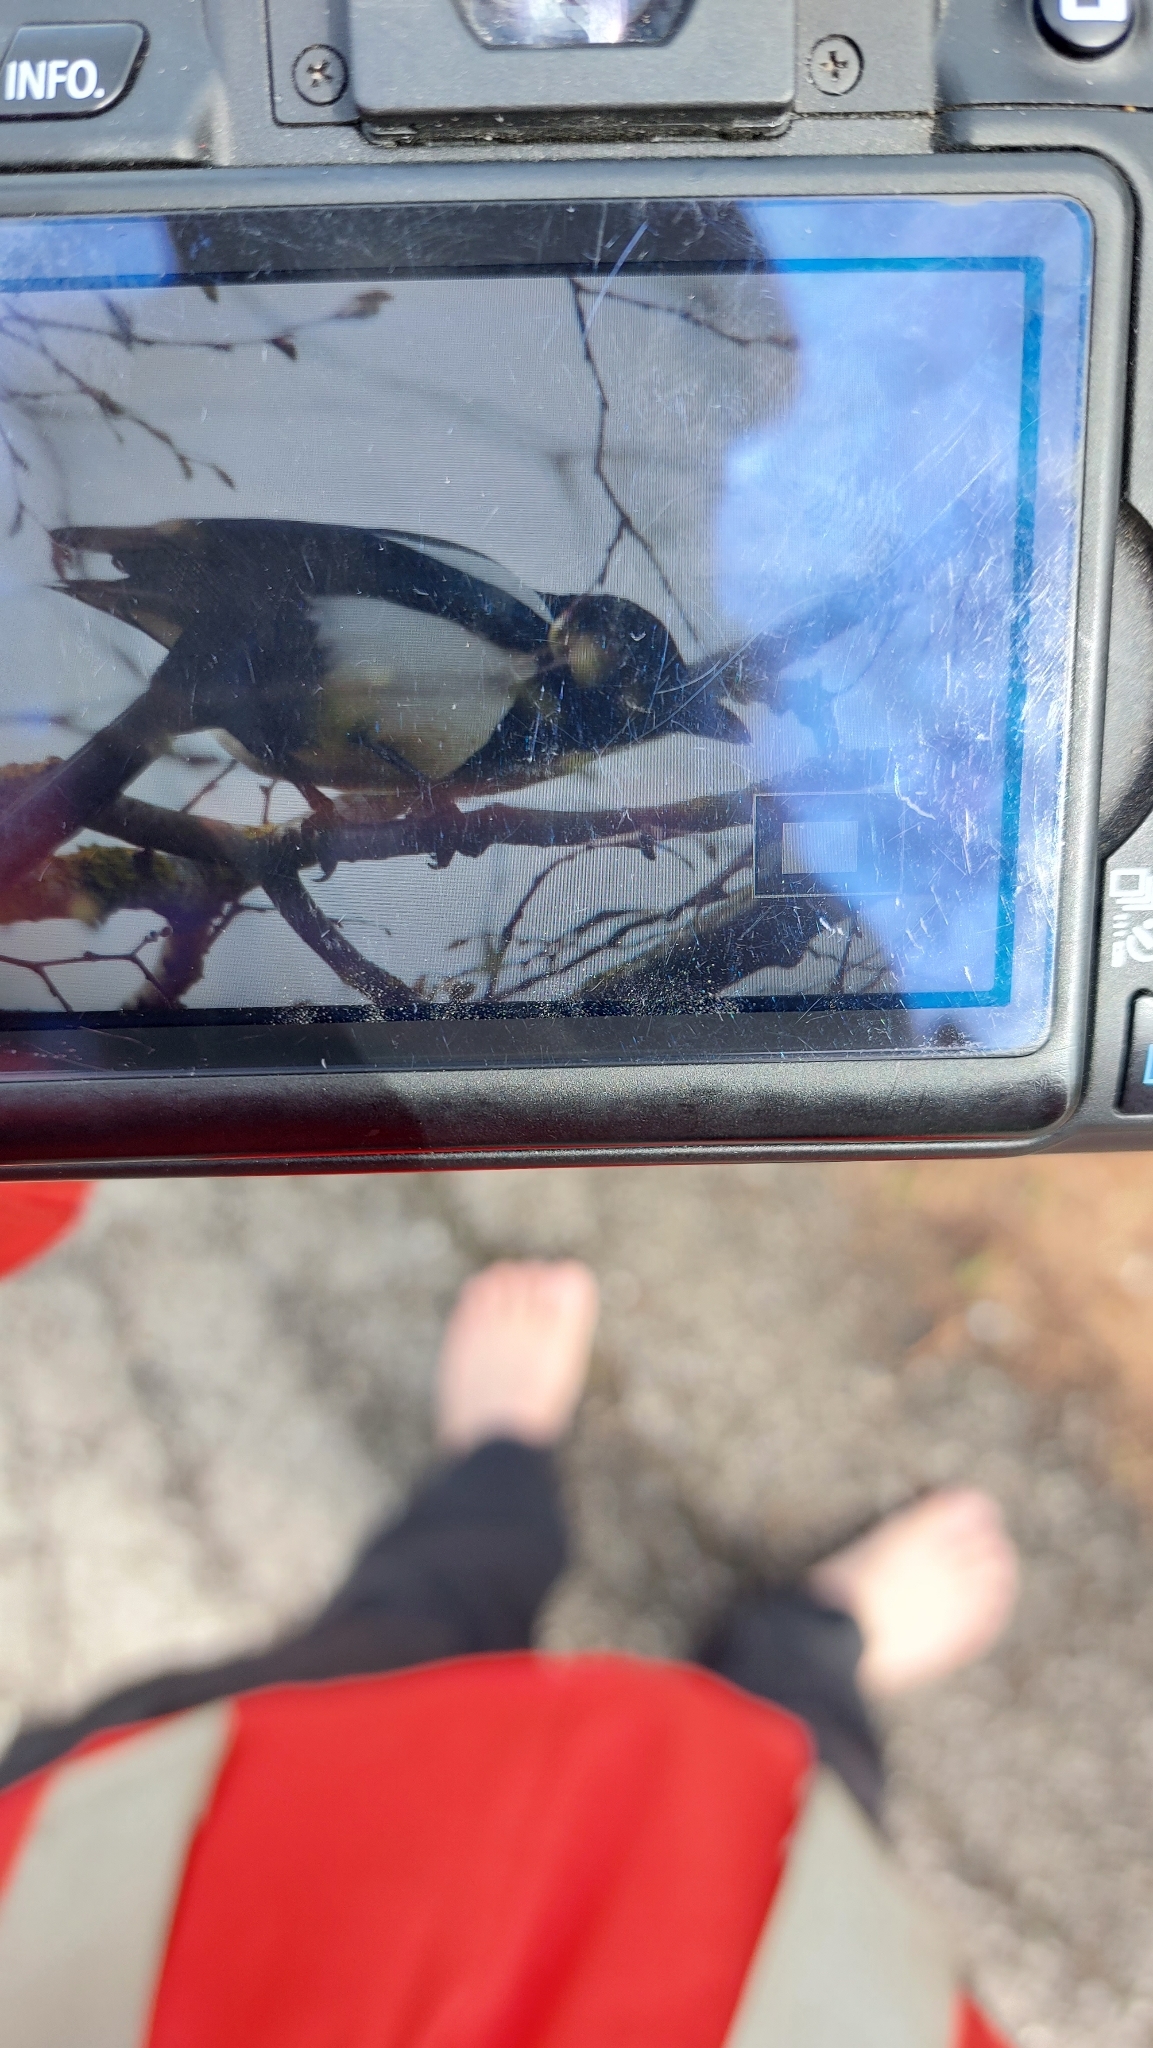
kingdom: Animalia
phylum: Chordata
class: Aves
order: Passeriformes
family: Corvidae
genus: Pica
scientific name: Pica pica
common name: Eurasian magpie
